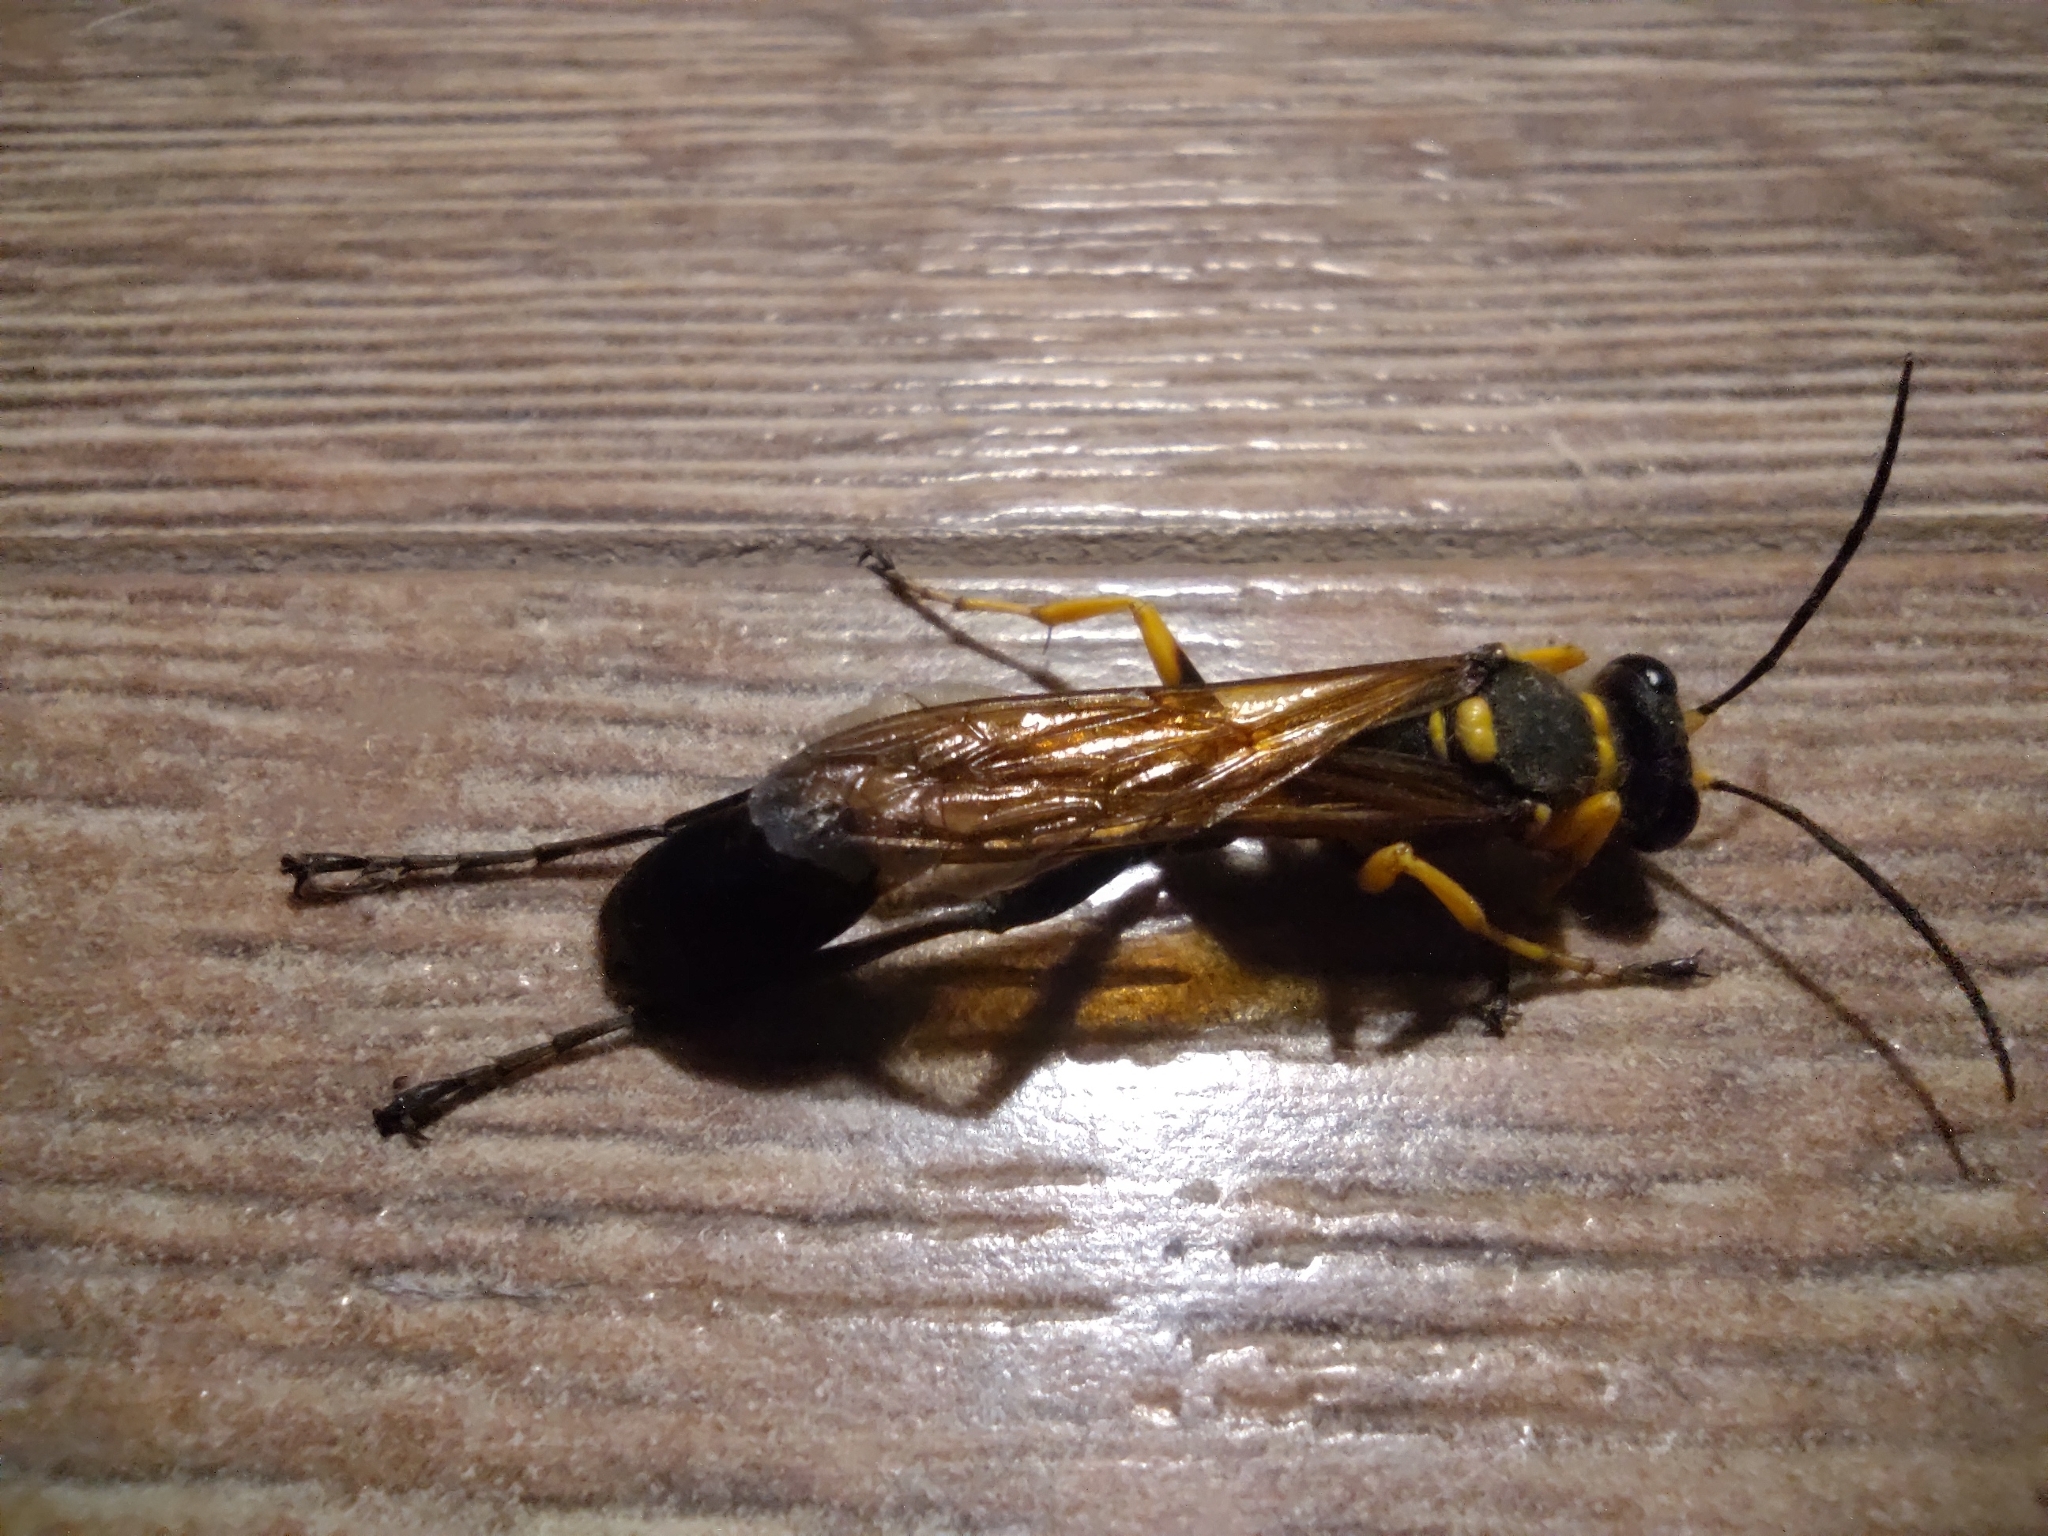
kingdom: Animalia
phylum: Arthropoda
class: Insecta
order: Hymenoptera
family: Sphecidae
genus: Sceliphron
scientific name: Sceliphron
